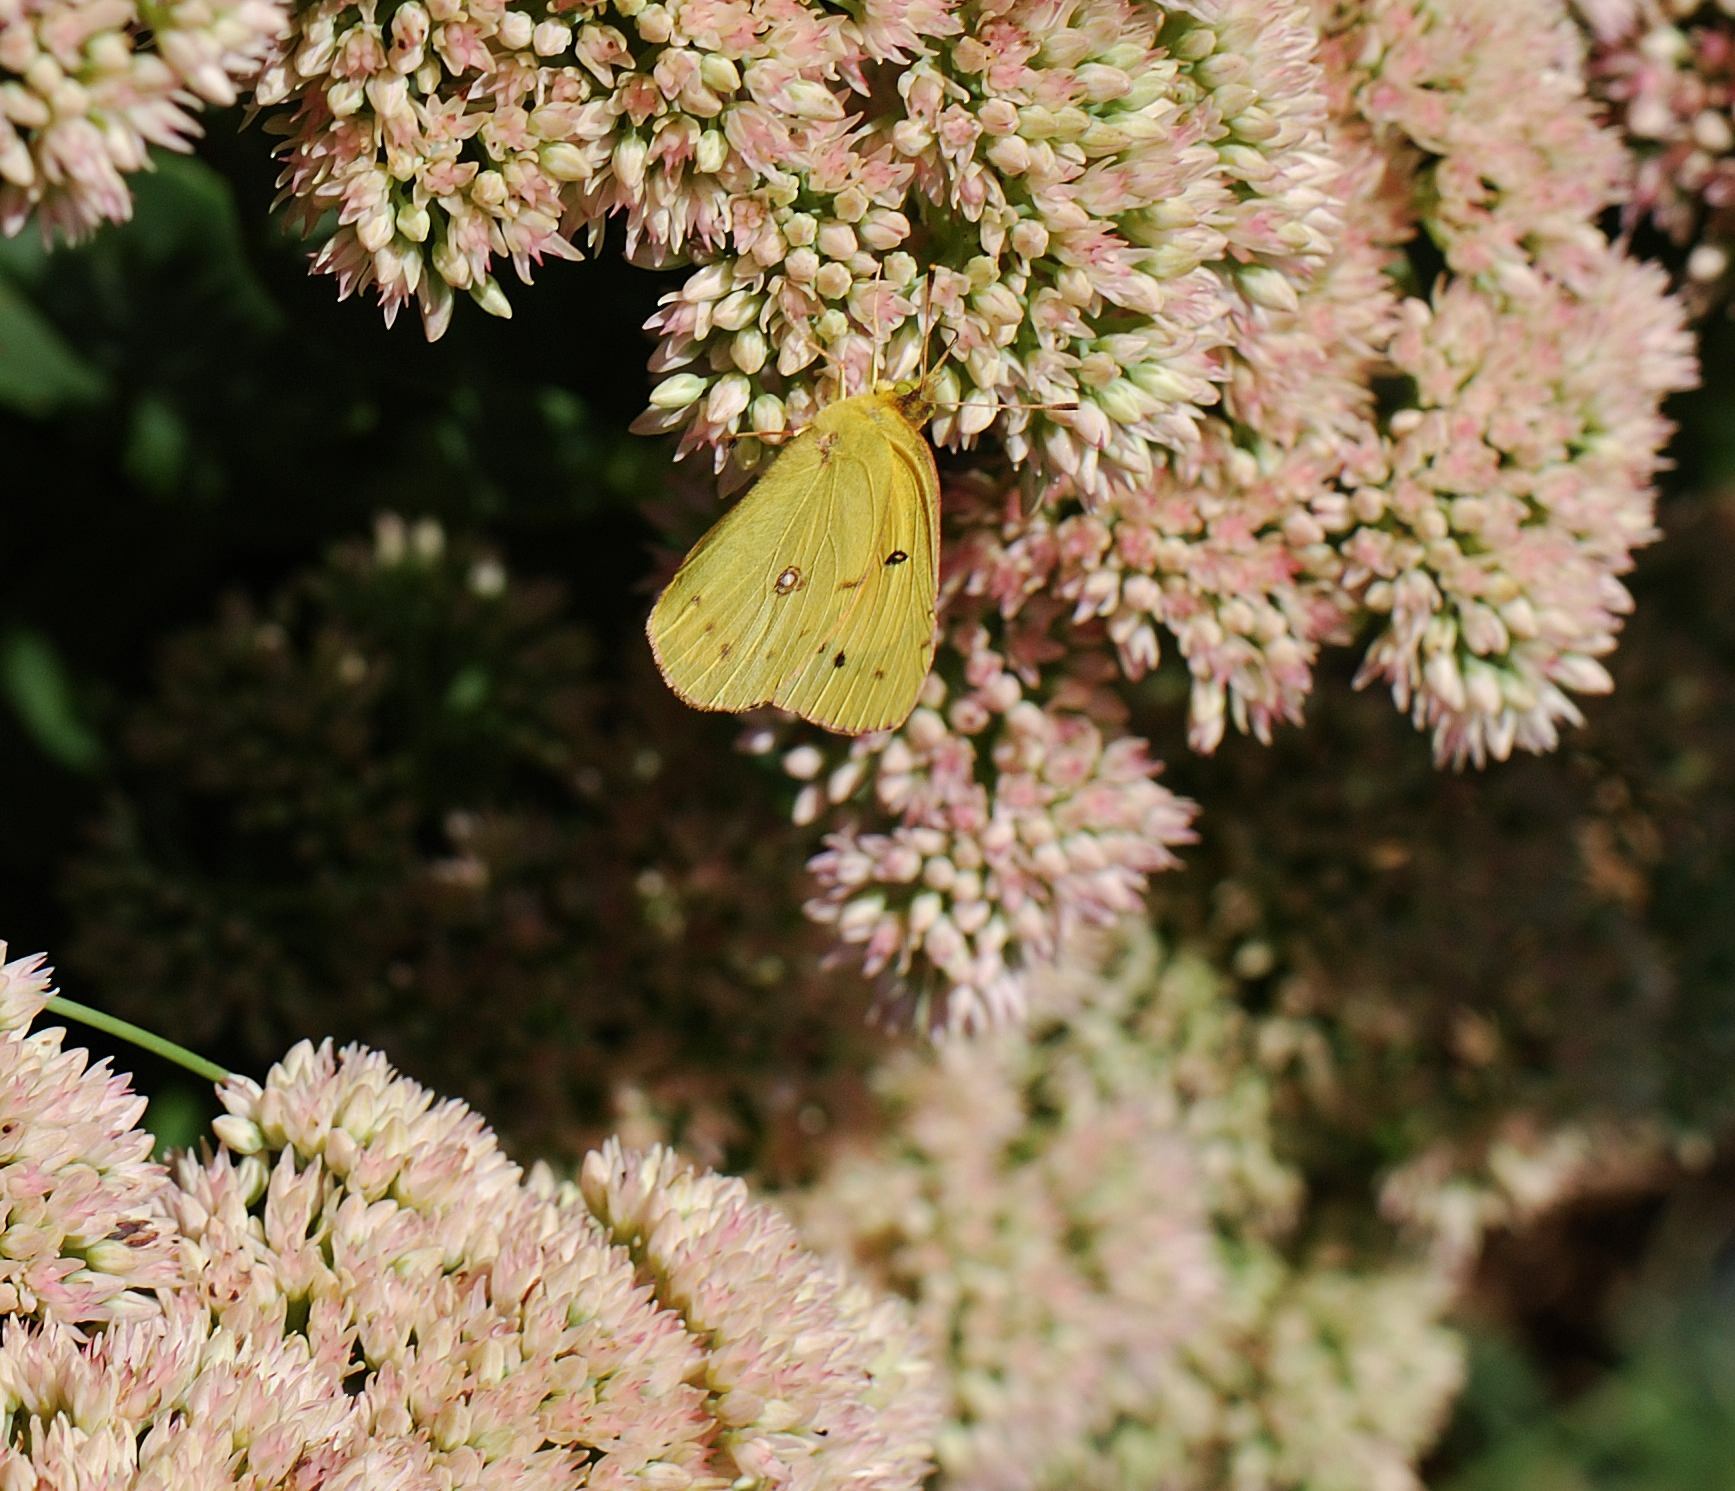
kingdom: Animalia
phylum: Arthropoda
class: Insecta
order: Lepidoptera
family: Pieridae
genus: Colias
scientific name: Colias eurytheme
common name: Alfalfa butterfly
